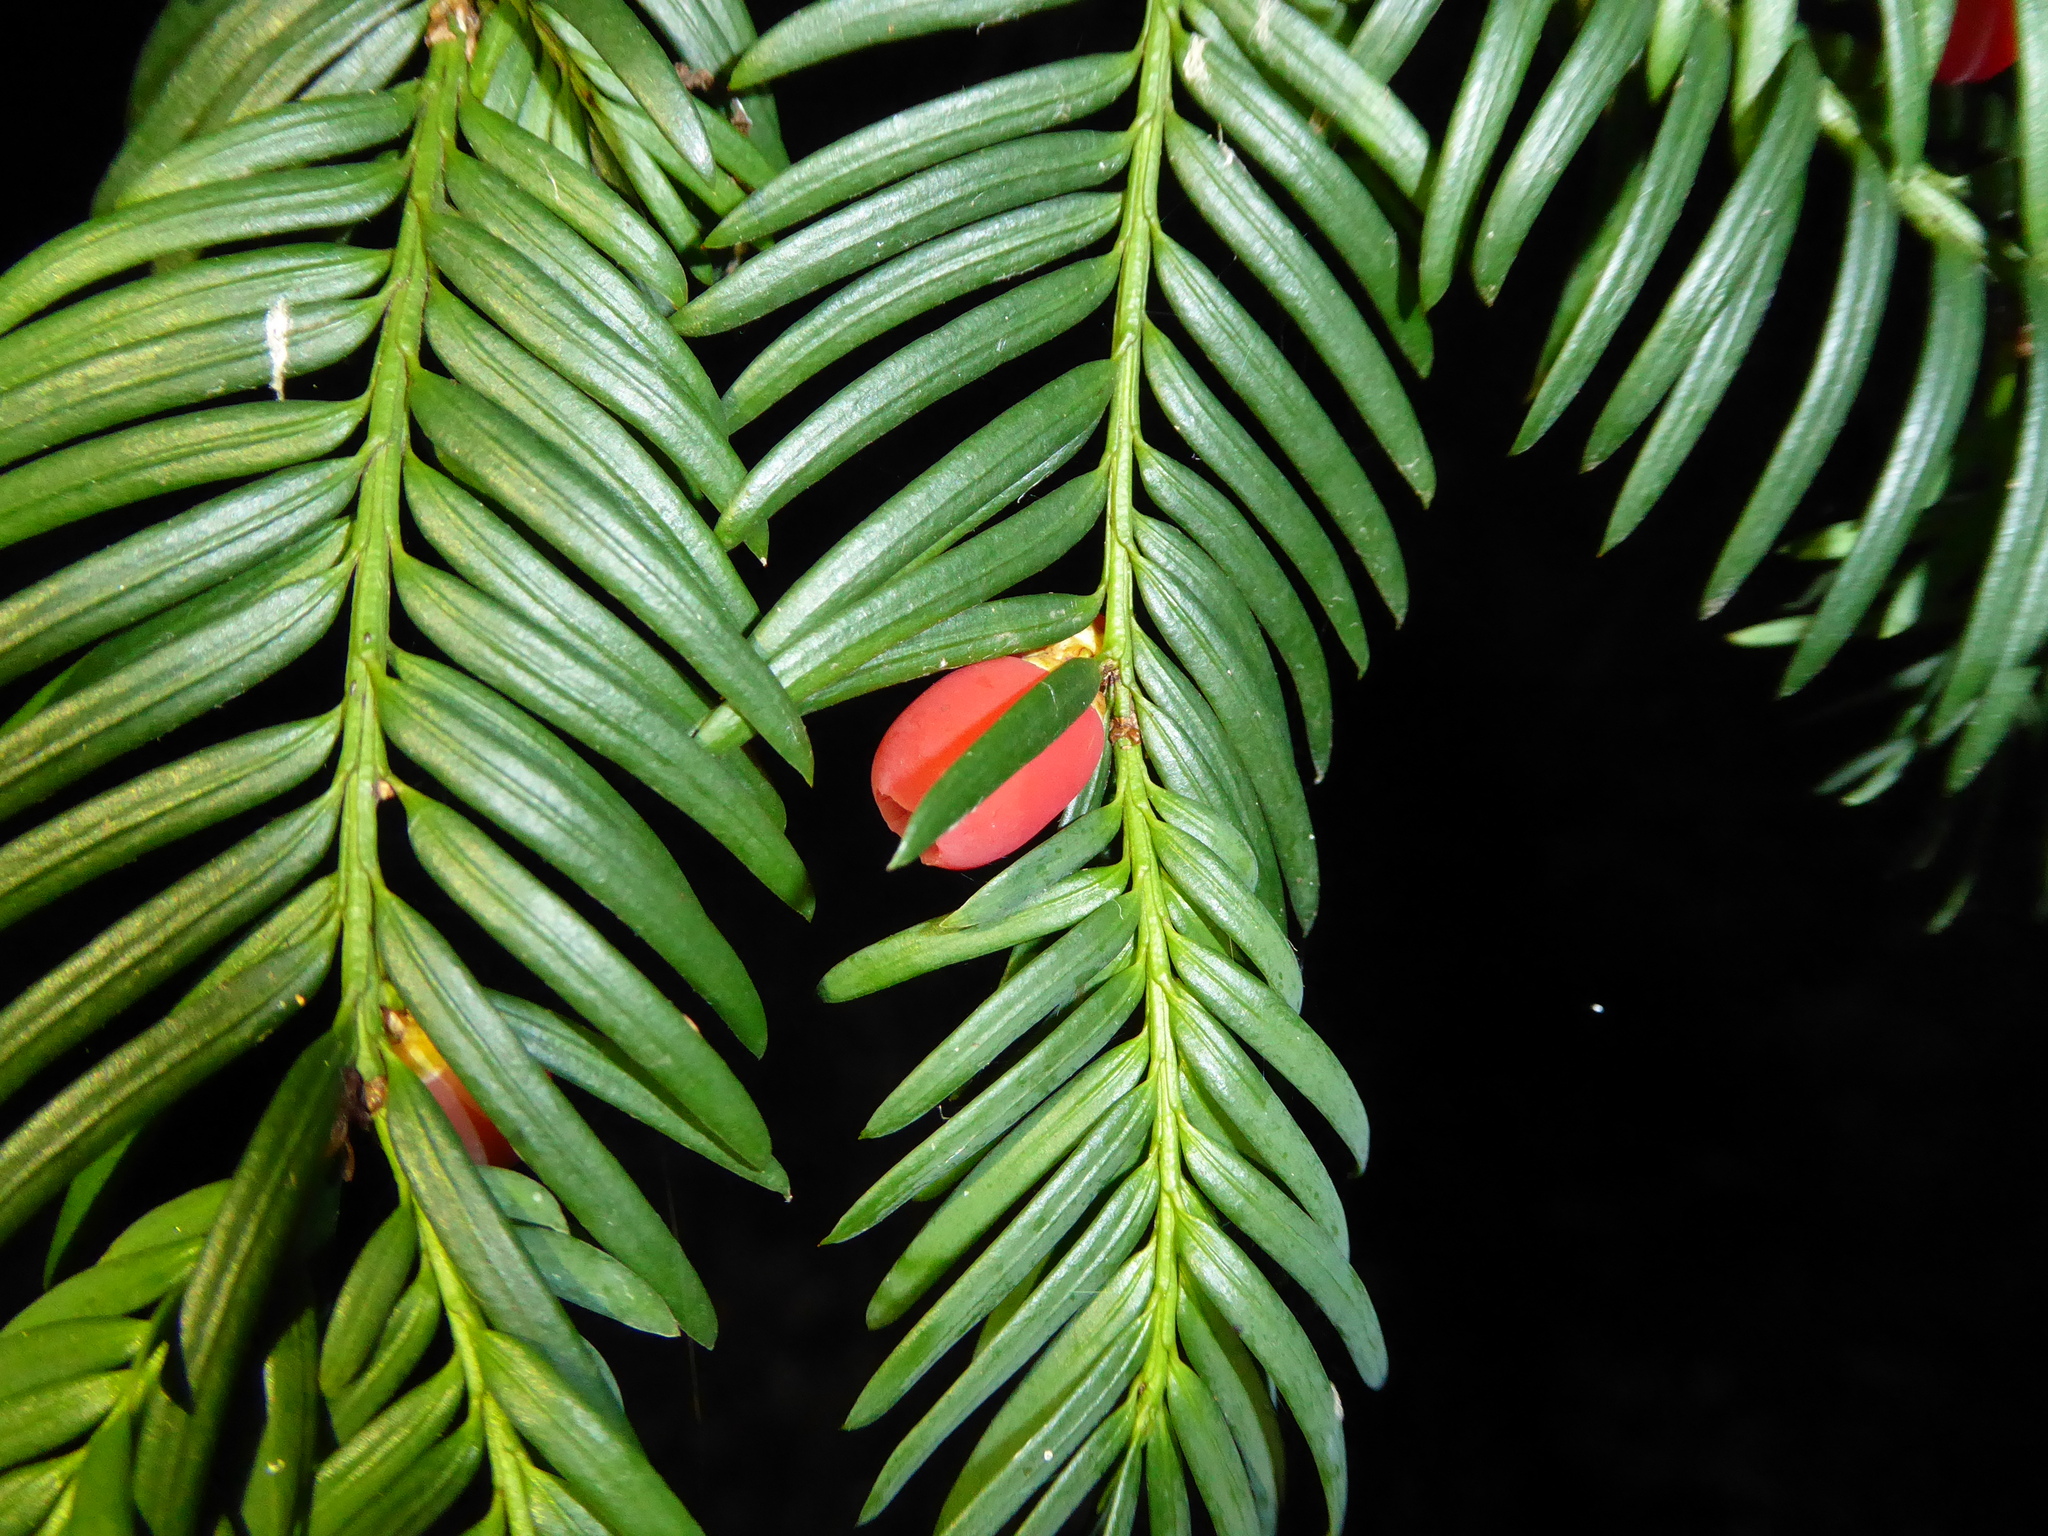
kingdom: Plantae
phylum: Tracheophyta
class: Pinopsida
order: Pinales
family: Taxaceae
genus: Taxus
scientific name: Taxus baccata
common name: Yew
